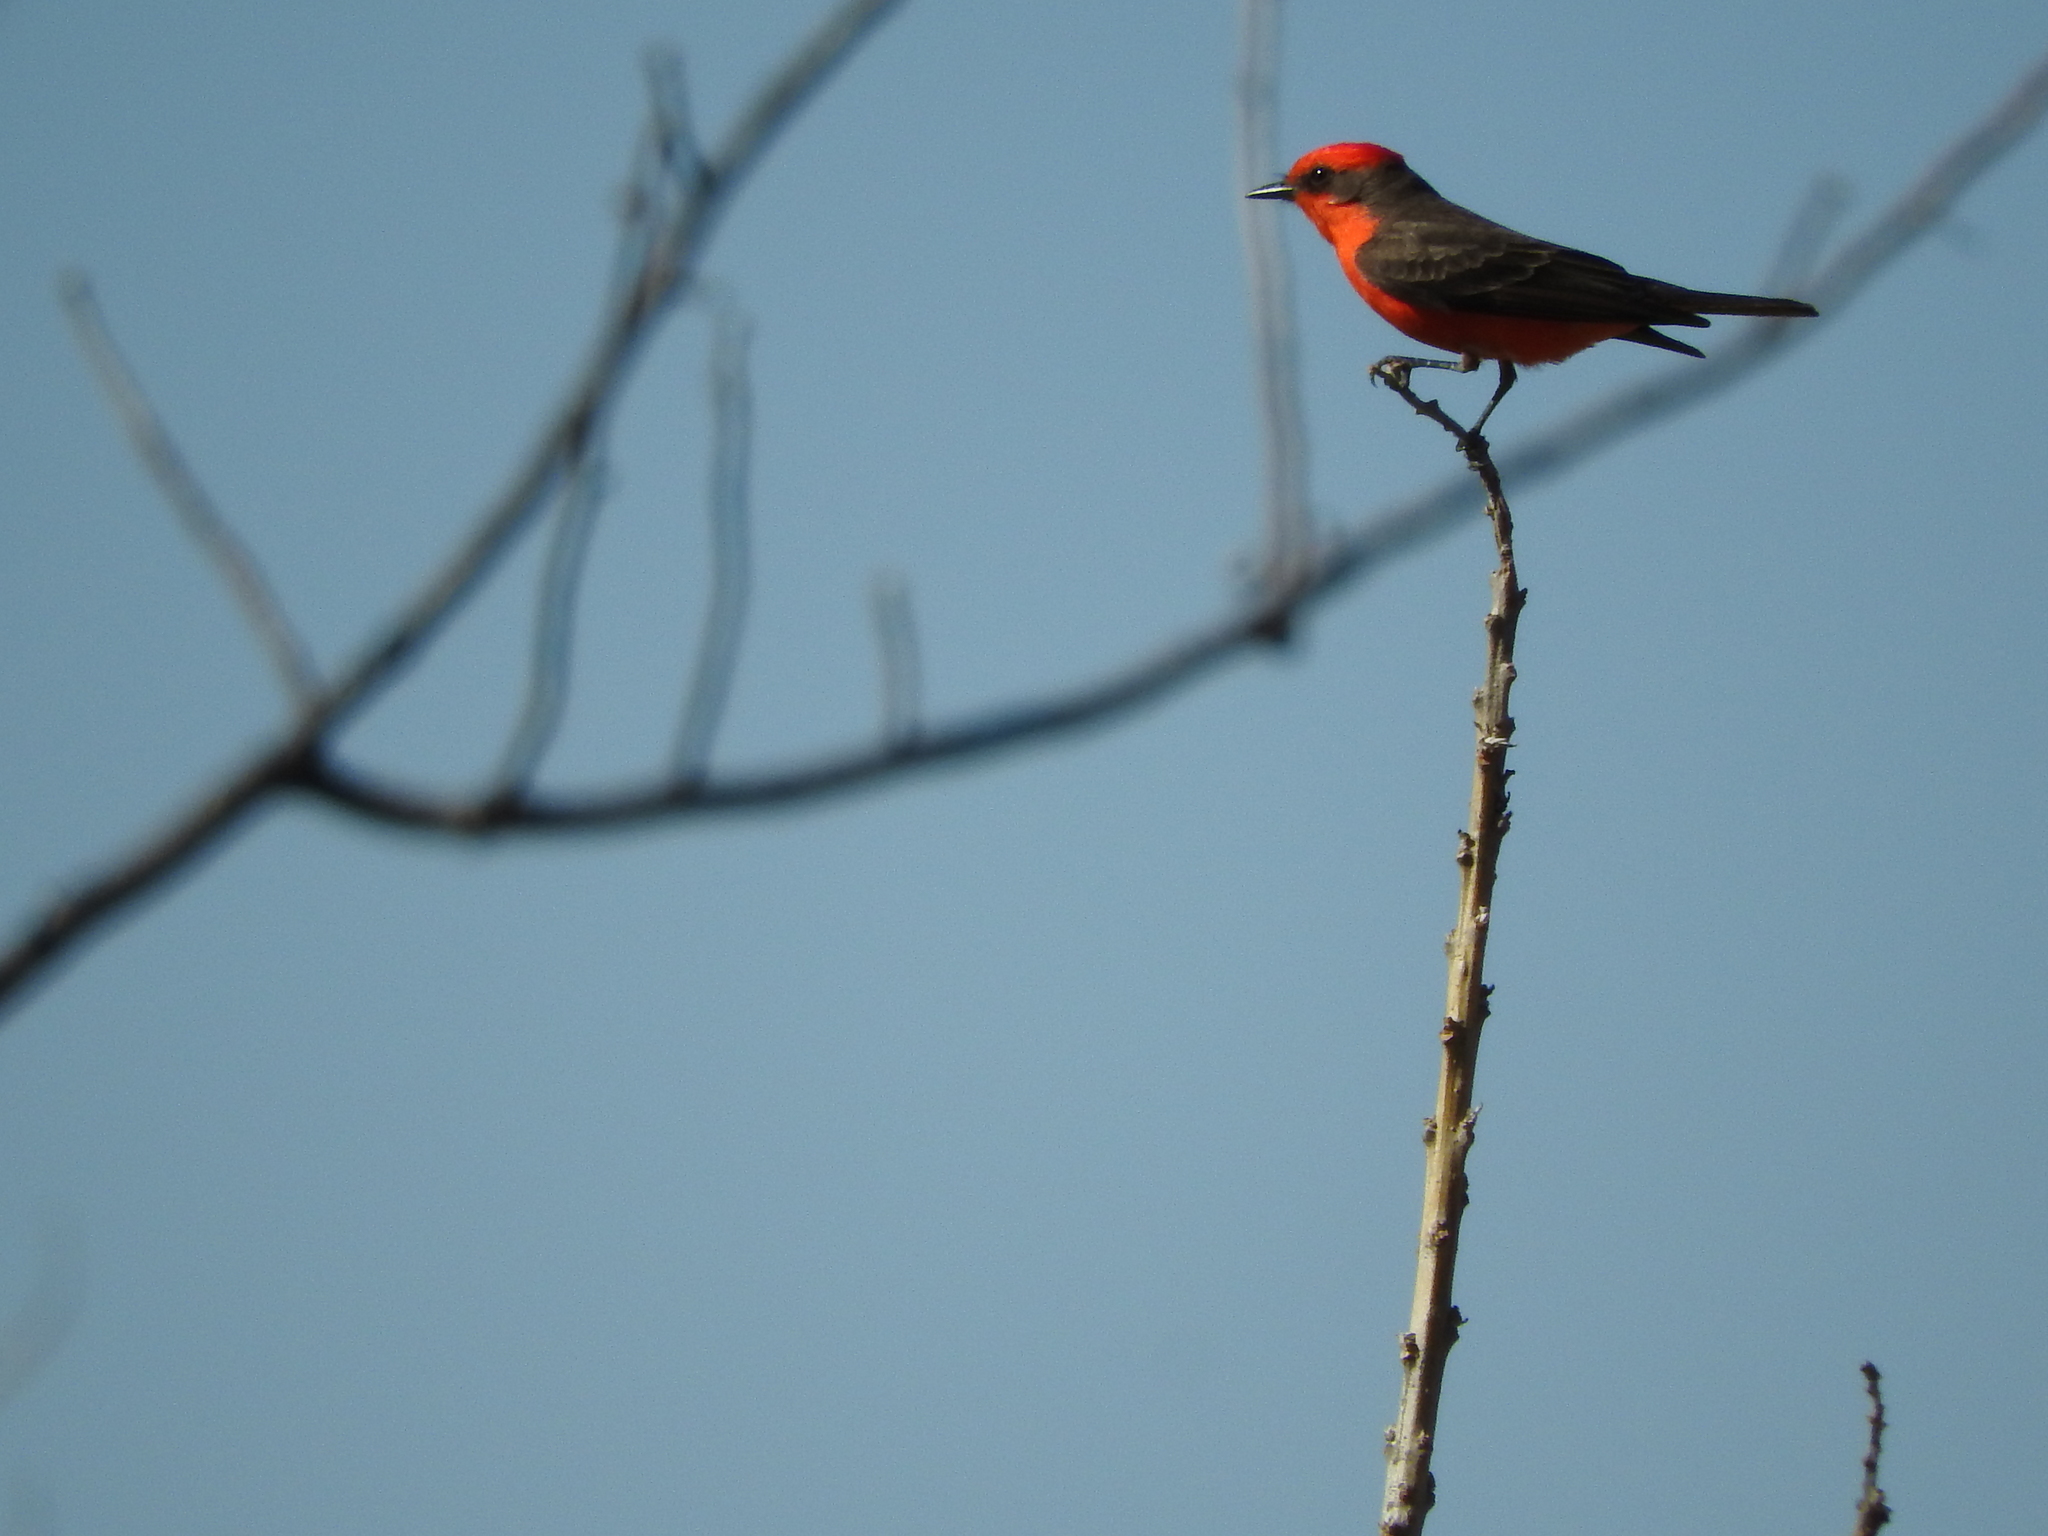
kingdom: Animalia
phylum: Chordata
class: Aves
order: Passeriformes
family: Tyrannidae
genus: Pyrocephalus
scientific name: Pyrocephalus rubinus
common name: Vermilion flycatcher
